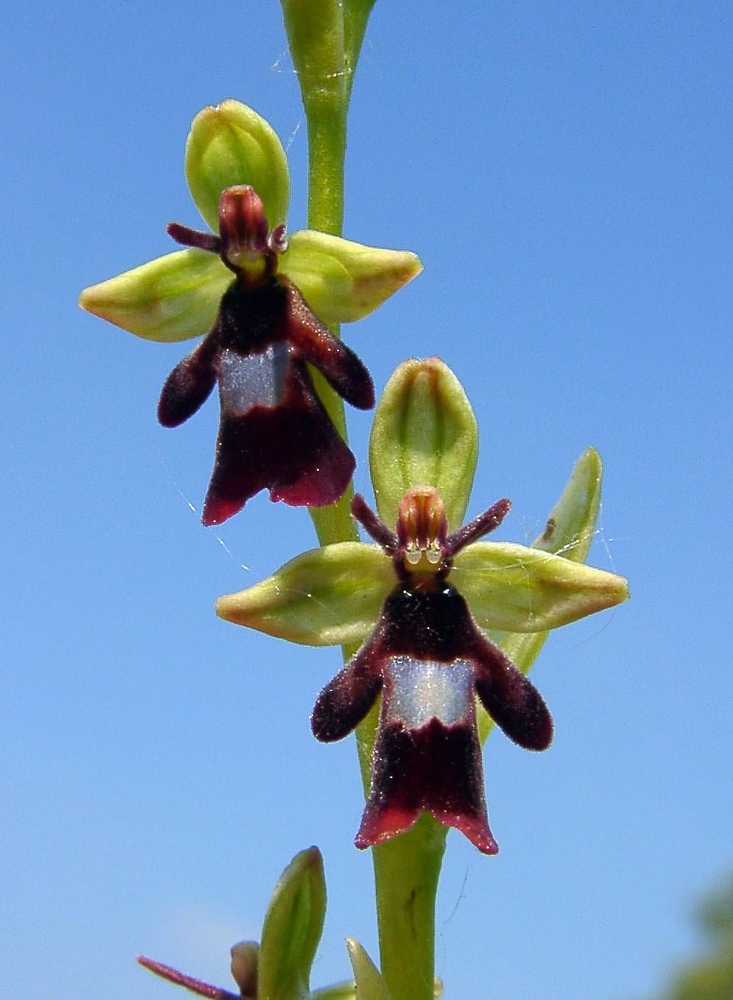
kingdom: Plantae
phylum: Tracheophyta
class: Liliopsida
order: Asparagales
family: Orchidaceae
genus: Ophrys
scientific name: Ophrys insectifera
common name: Fly orchid
